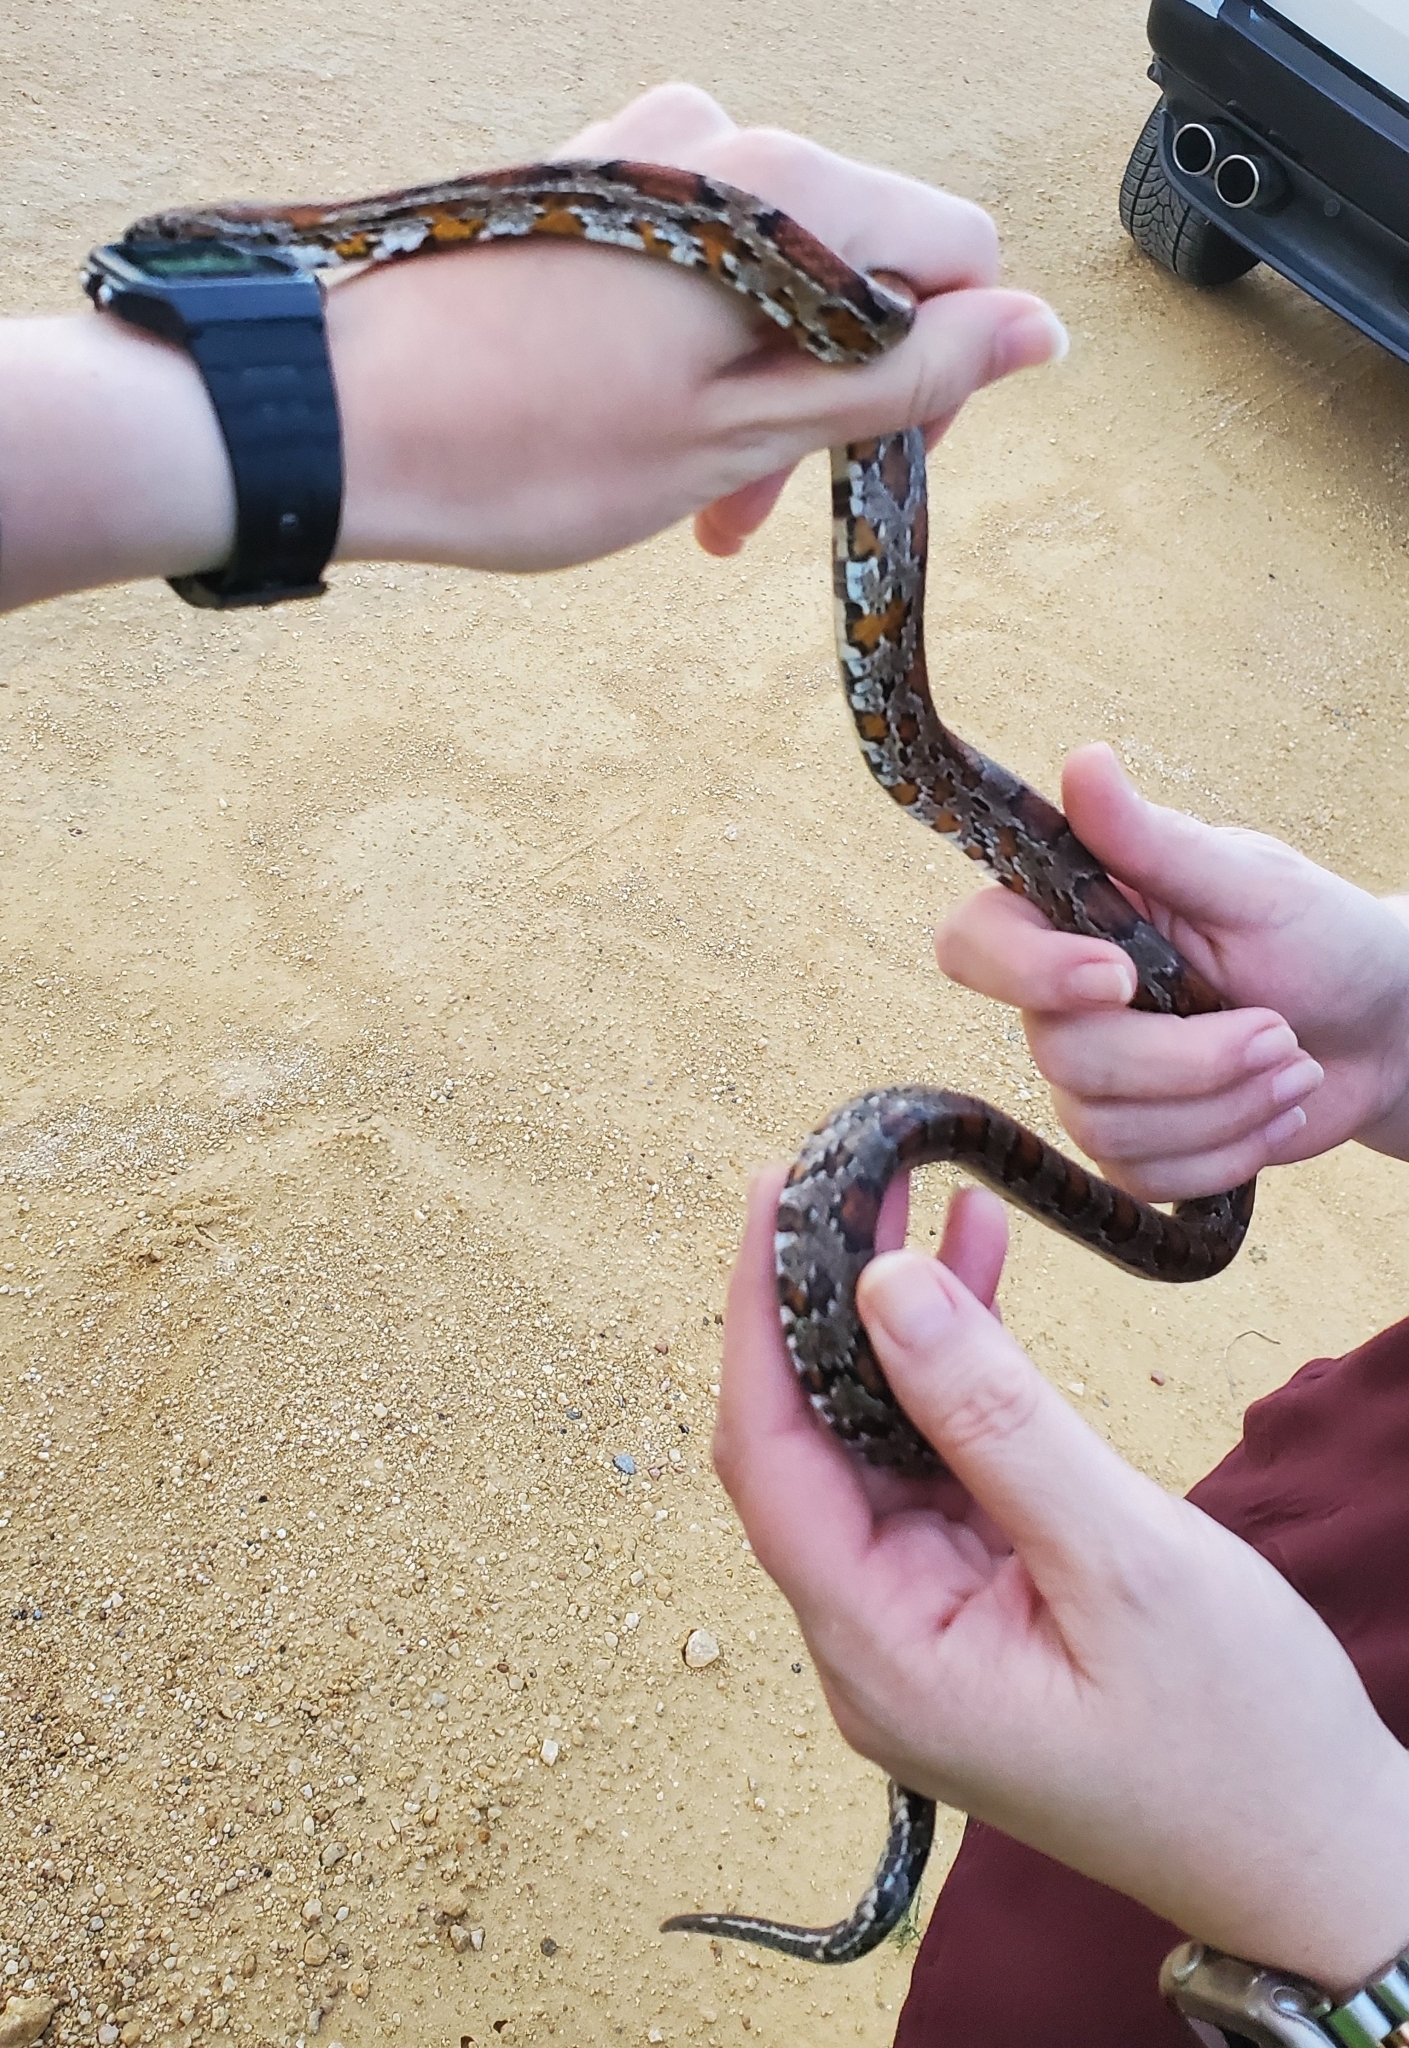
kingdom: Animalia
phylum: Chordata
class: Squamata
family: Colubridae
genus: Pantherophis
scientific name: Pantherophis guttatus
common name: Red cornsnake
